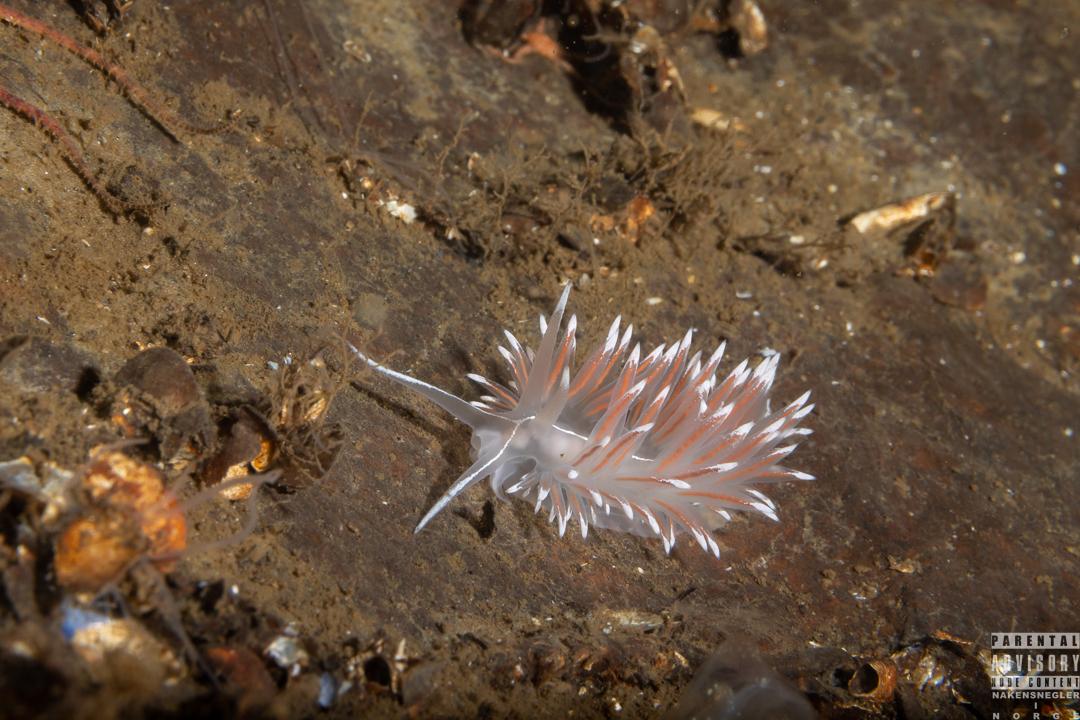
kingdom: Animalia
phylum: Mollusca
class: Gastropoda
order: Nudibranchia
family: Coryphellidae
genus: Coryphella
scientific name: Coryphella lineata
